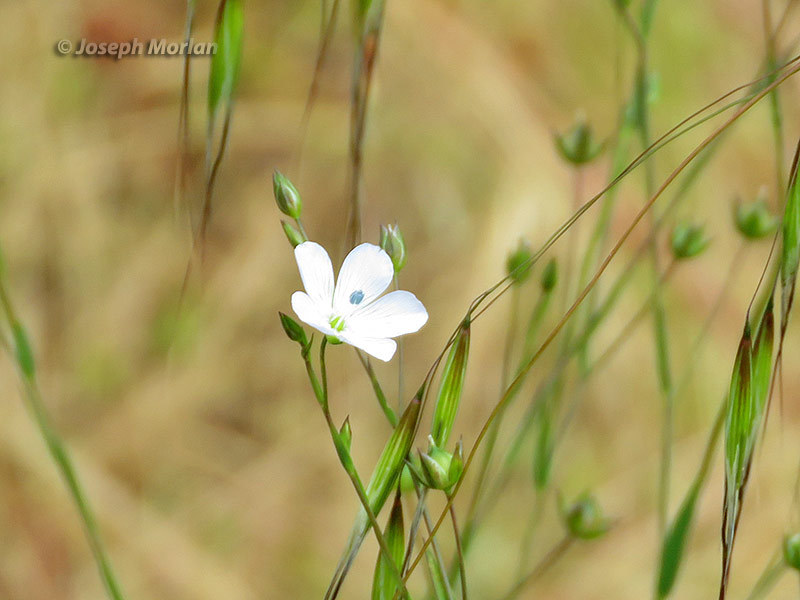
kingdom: Plantae
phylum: Tracheophyta
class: Magnoliopsida
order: Malpighiales
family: Linaceae
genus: Linum
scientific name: Linum bienne
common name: Pale flax
